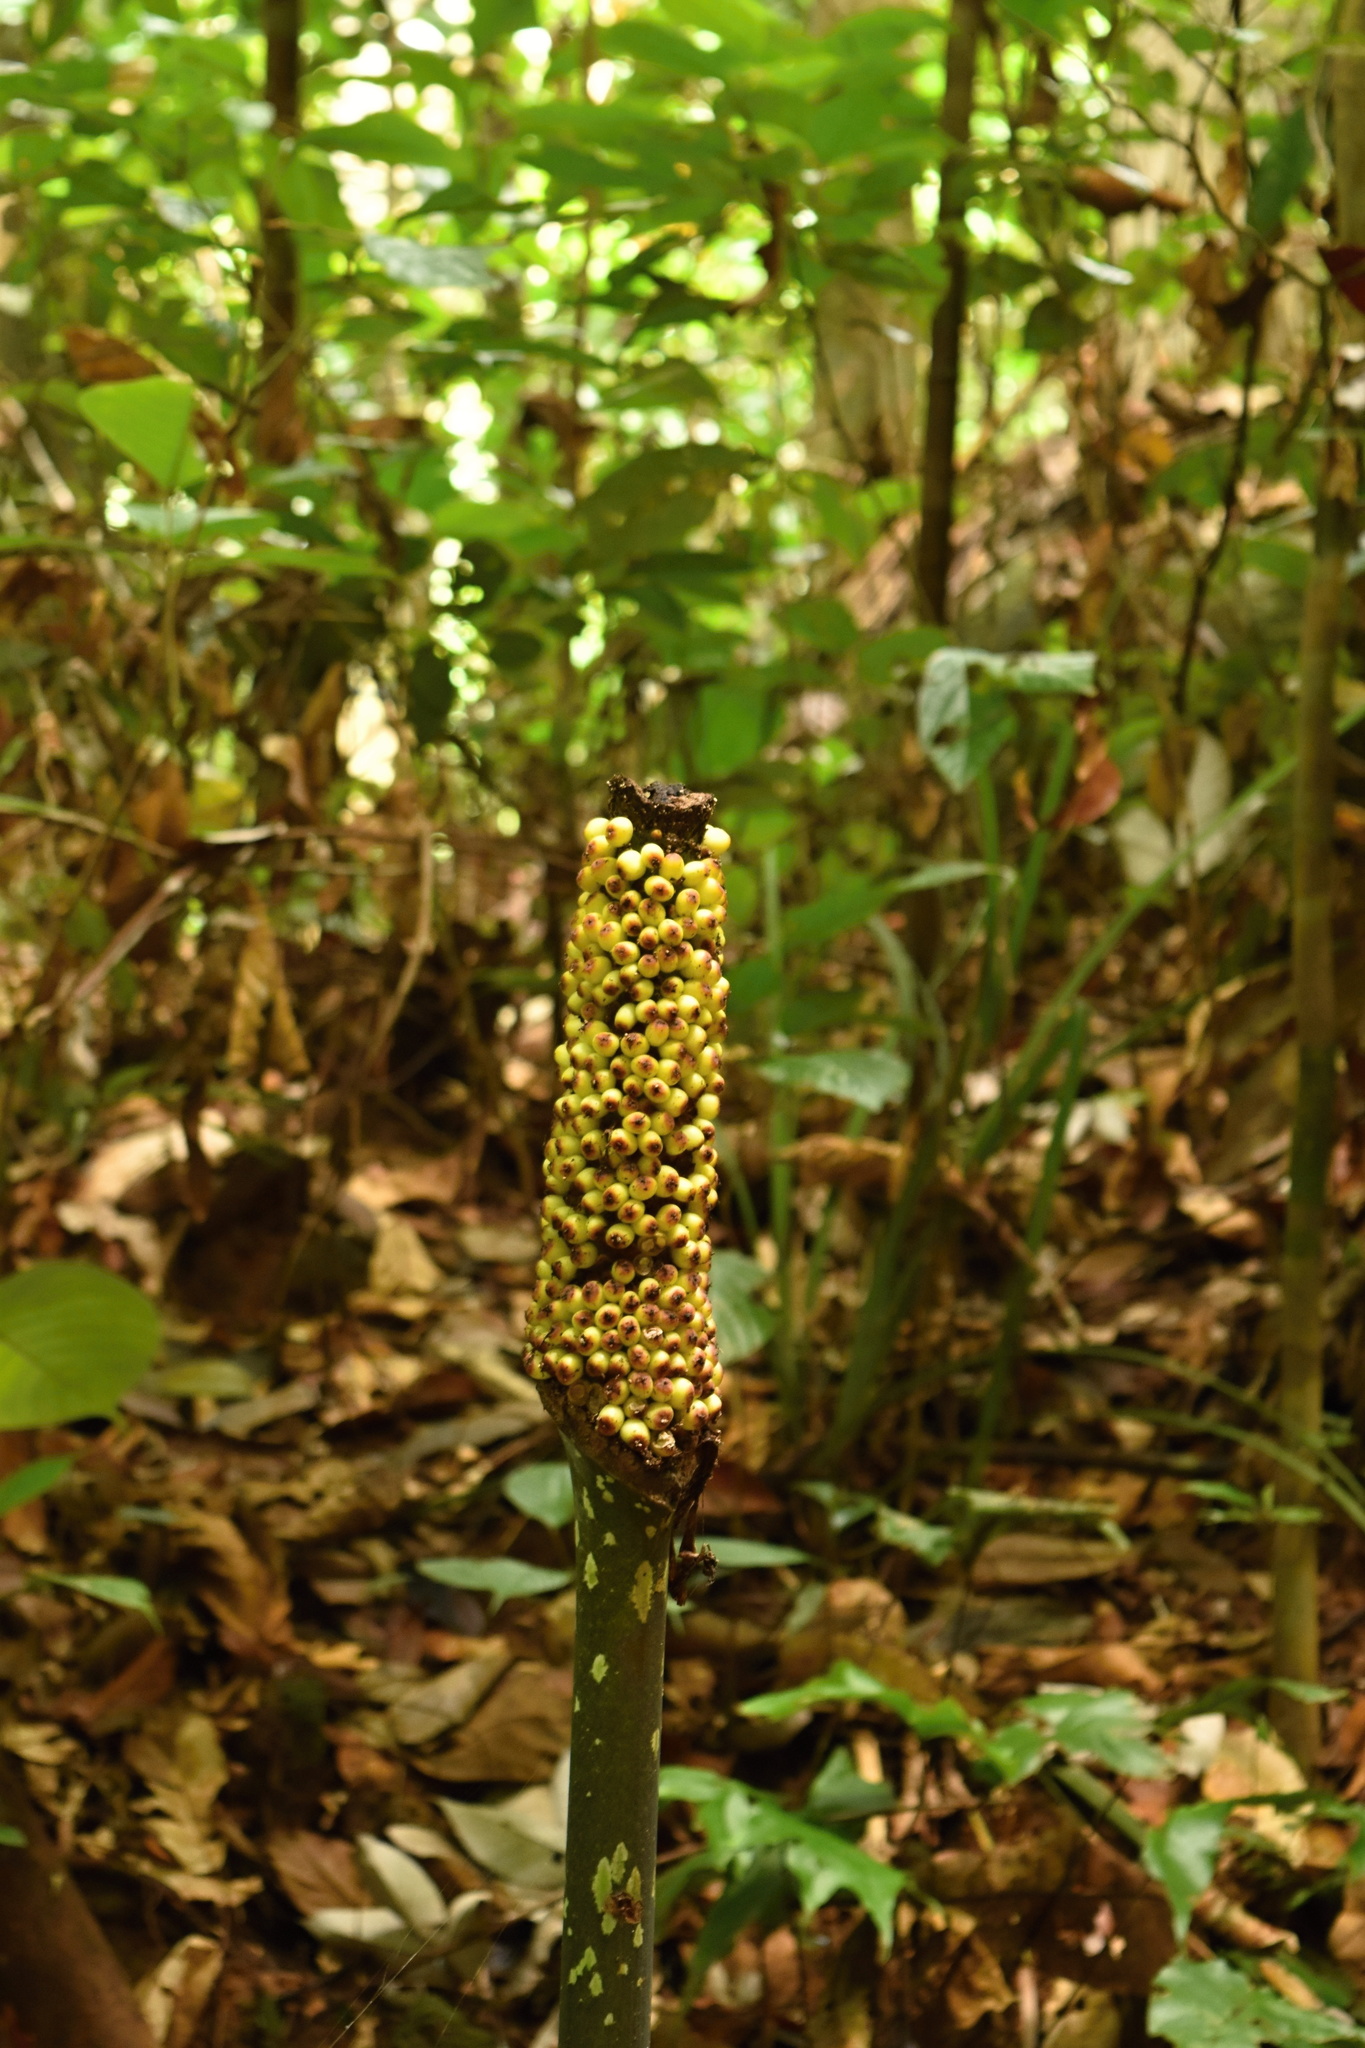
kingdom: Plantae
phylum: Tracheophyta
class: Liliopsida
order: Alismatales
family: Araceae
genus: Amorphophallus
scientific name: Amorphophallus hewittii
